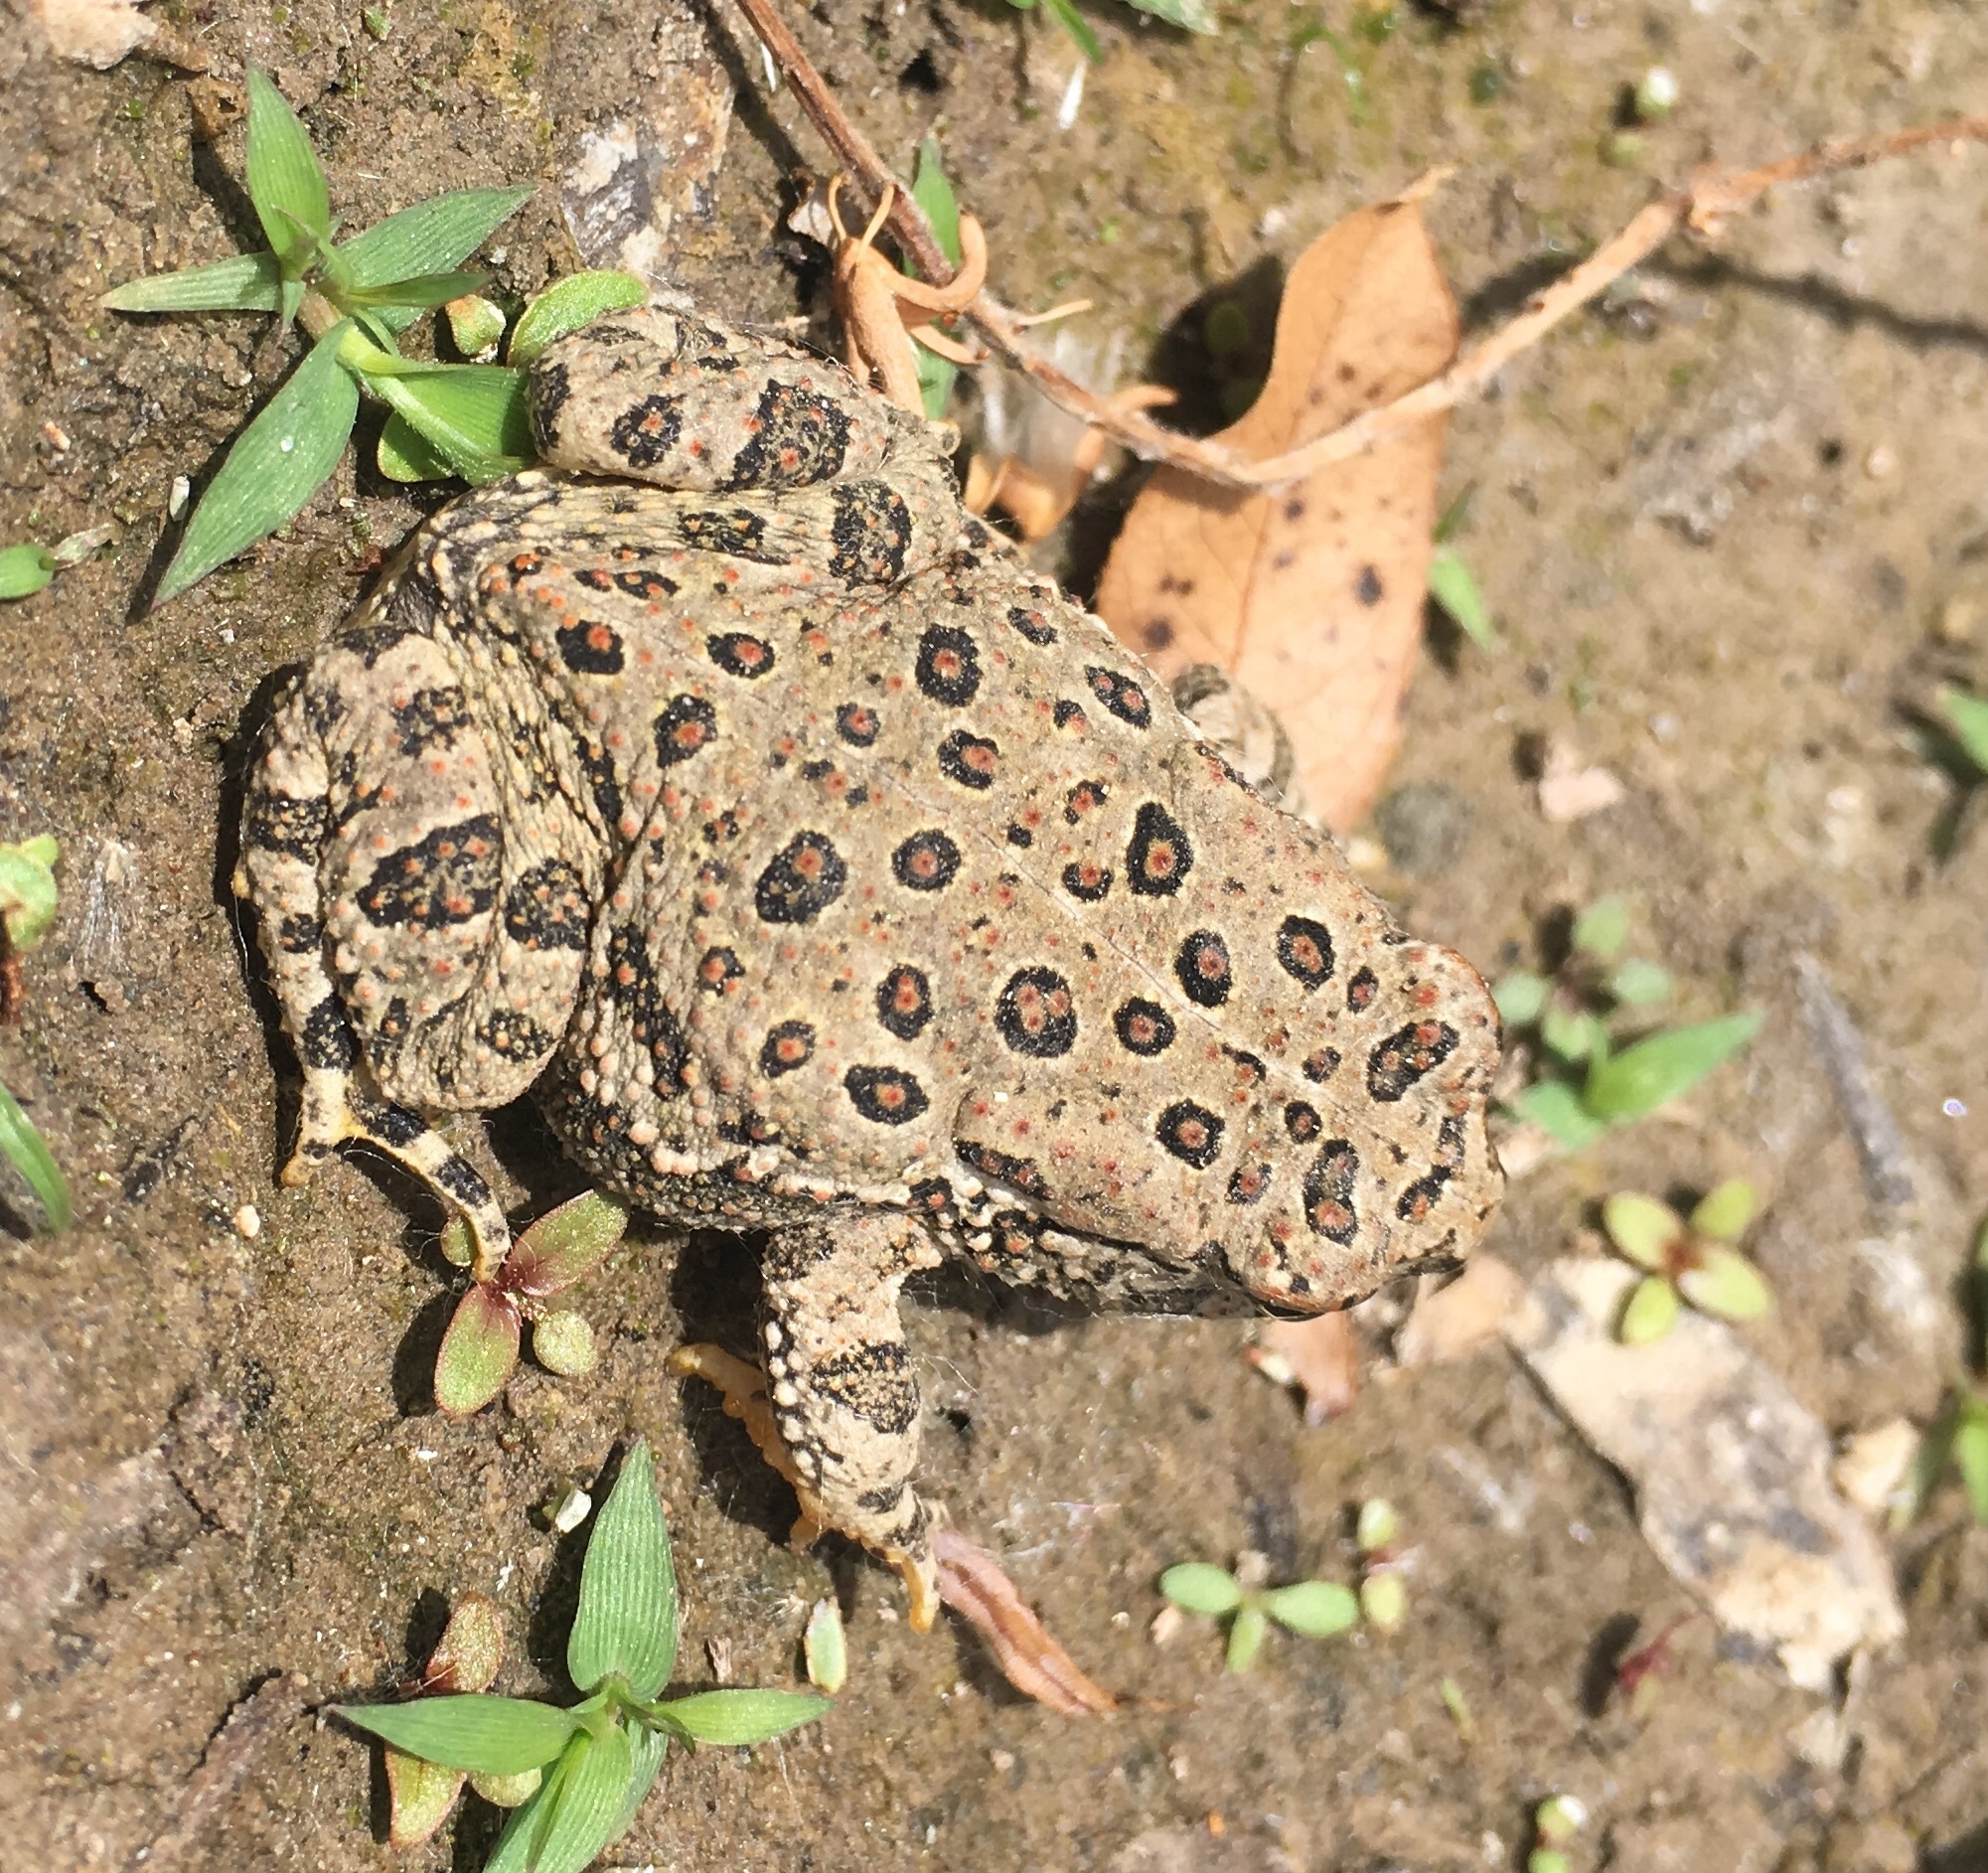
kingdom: Animalia
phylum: Chordata
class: Amphibia
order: Anura
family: Bufonidae
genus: Anaxyrus
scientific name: Anaxyrus woodhousii
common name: Woodhouse's toad
